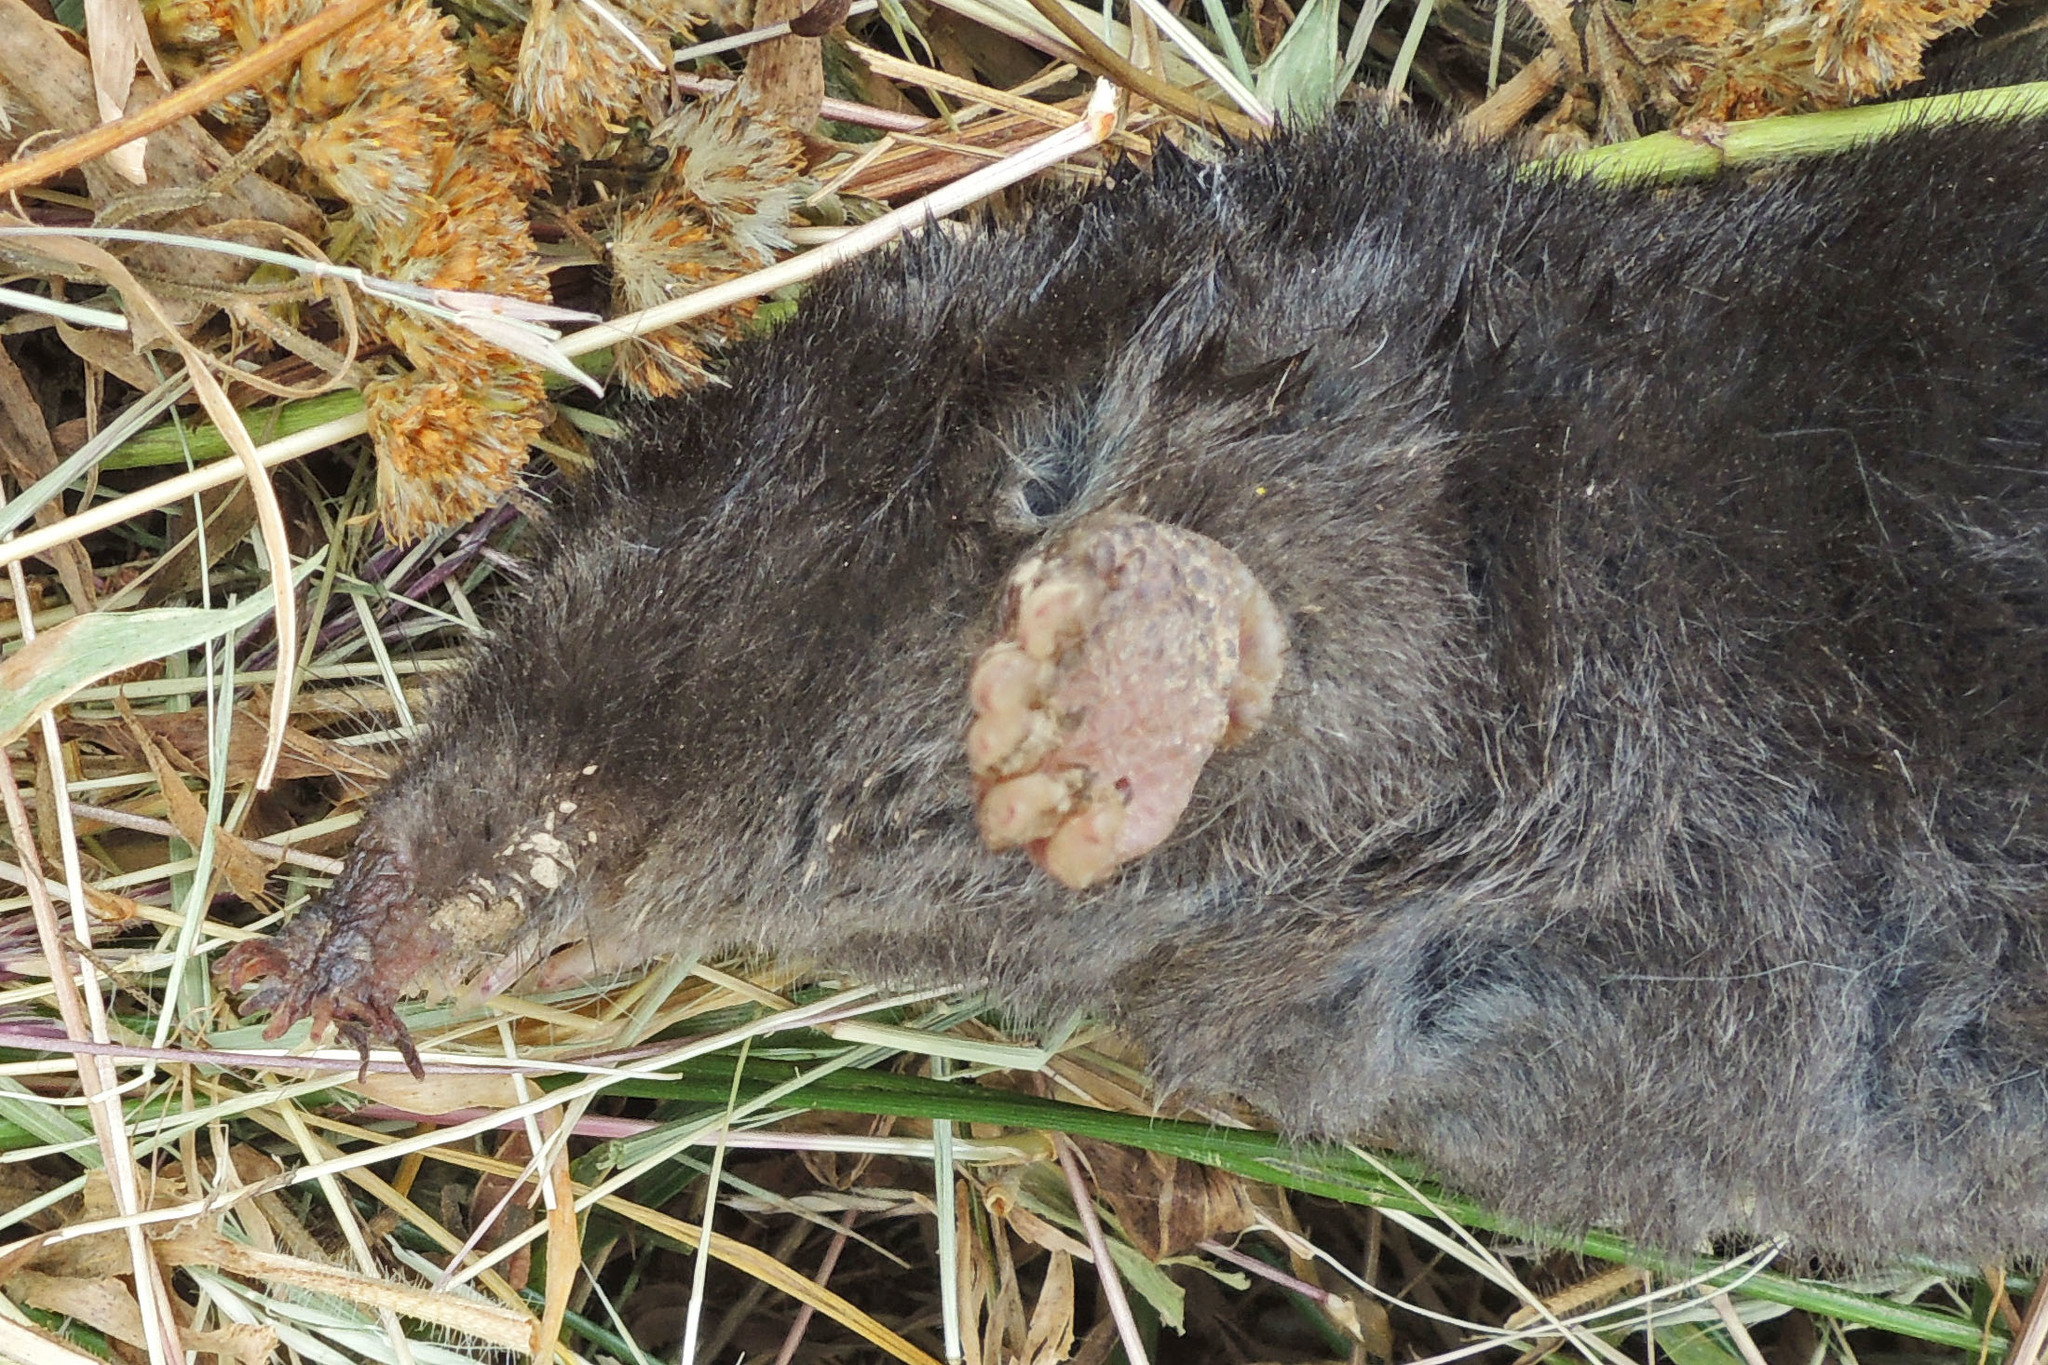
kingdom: Animalia
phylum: Chordata
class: Mammalia
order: Soricomorpha
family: Talpidae
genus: Condylura
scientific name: Condylura cristata
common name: Star-nosed mole
